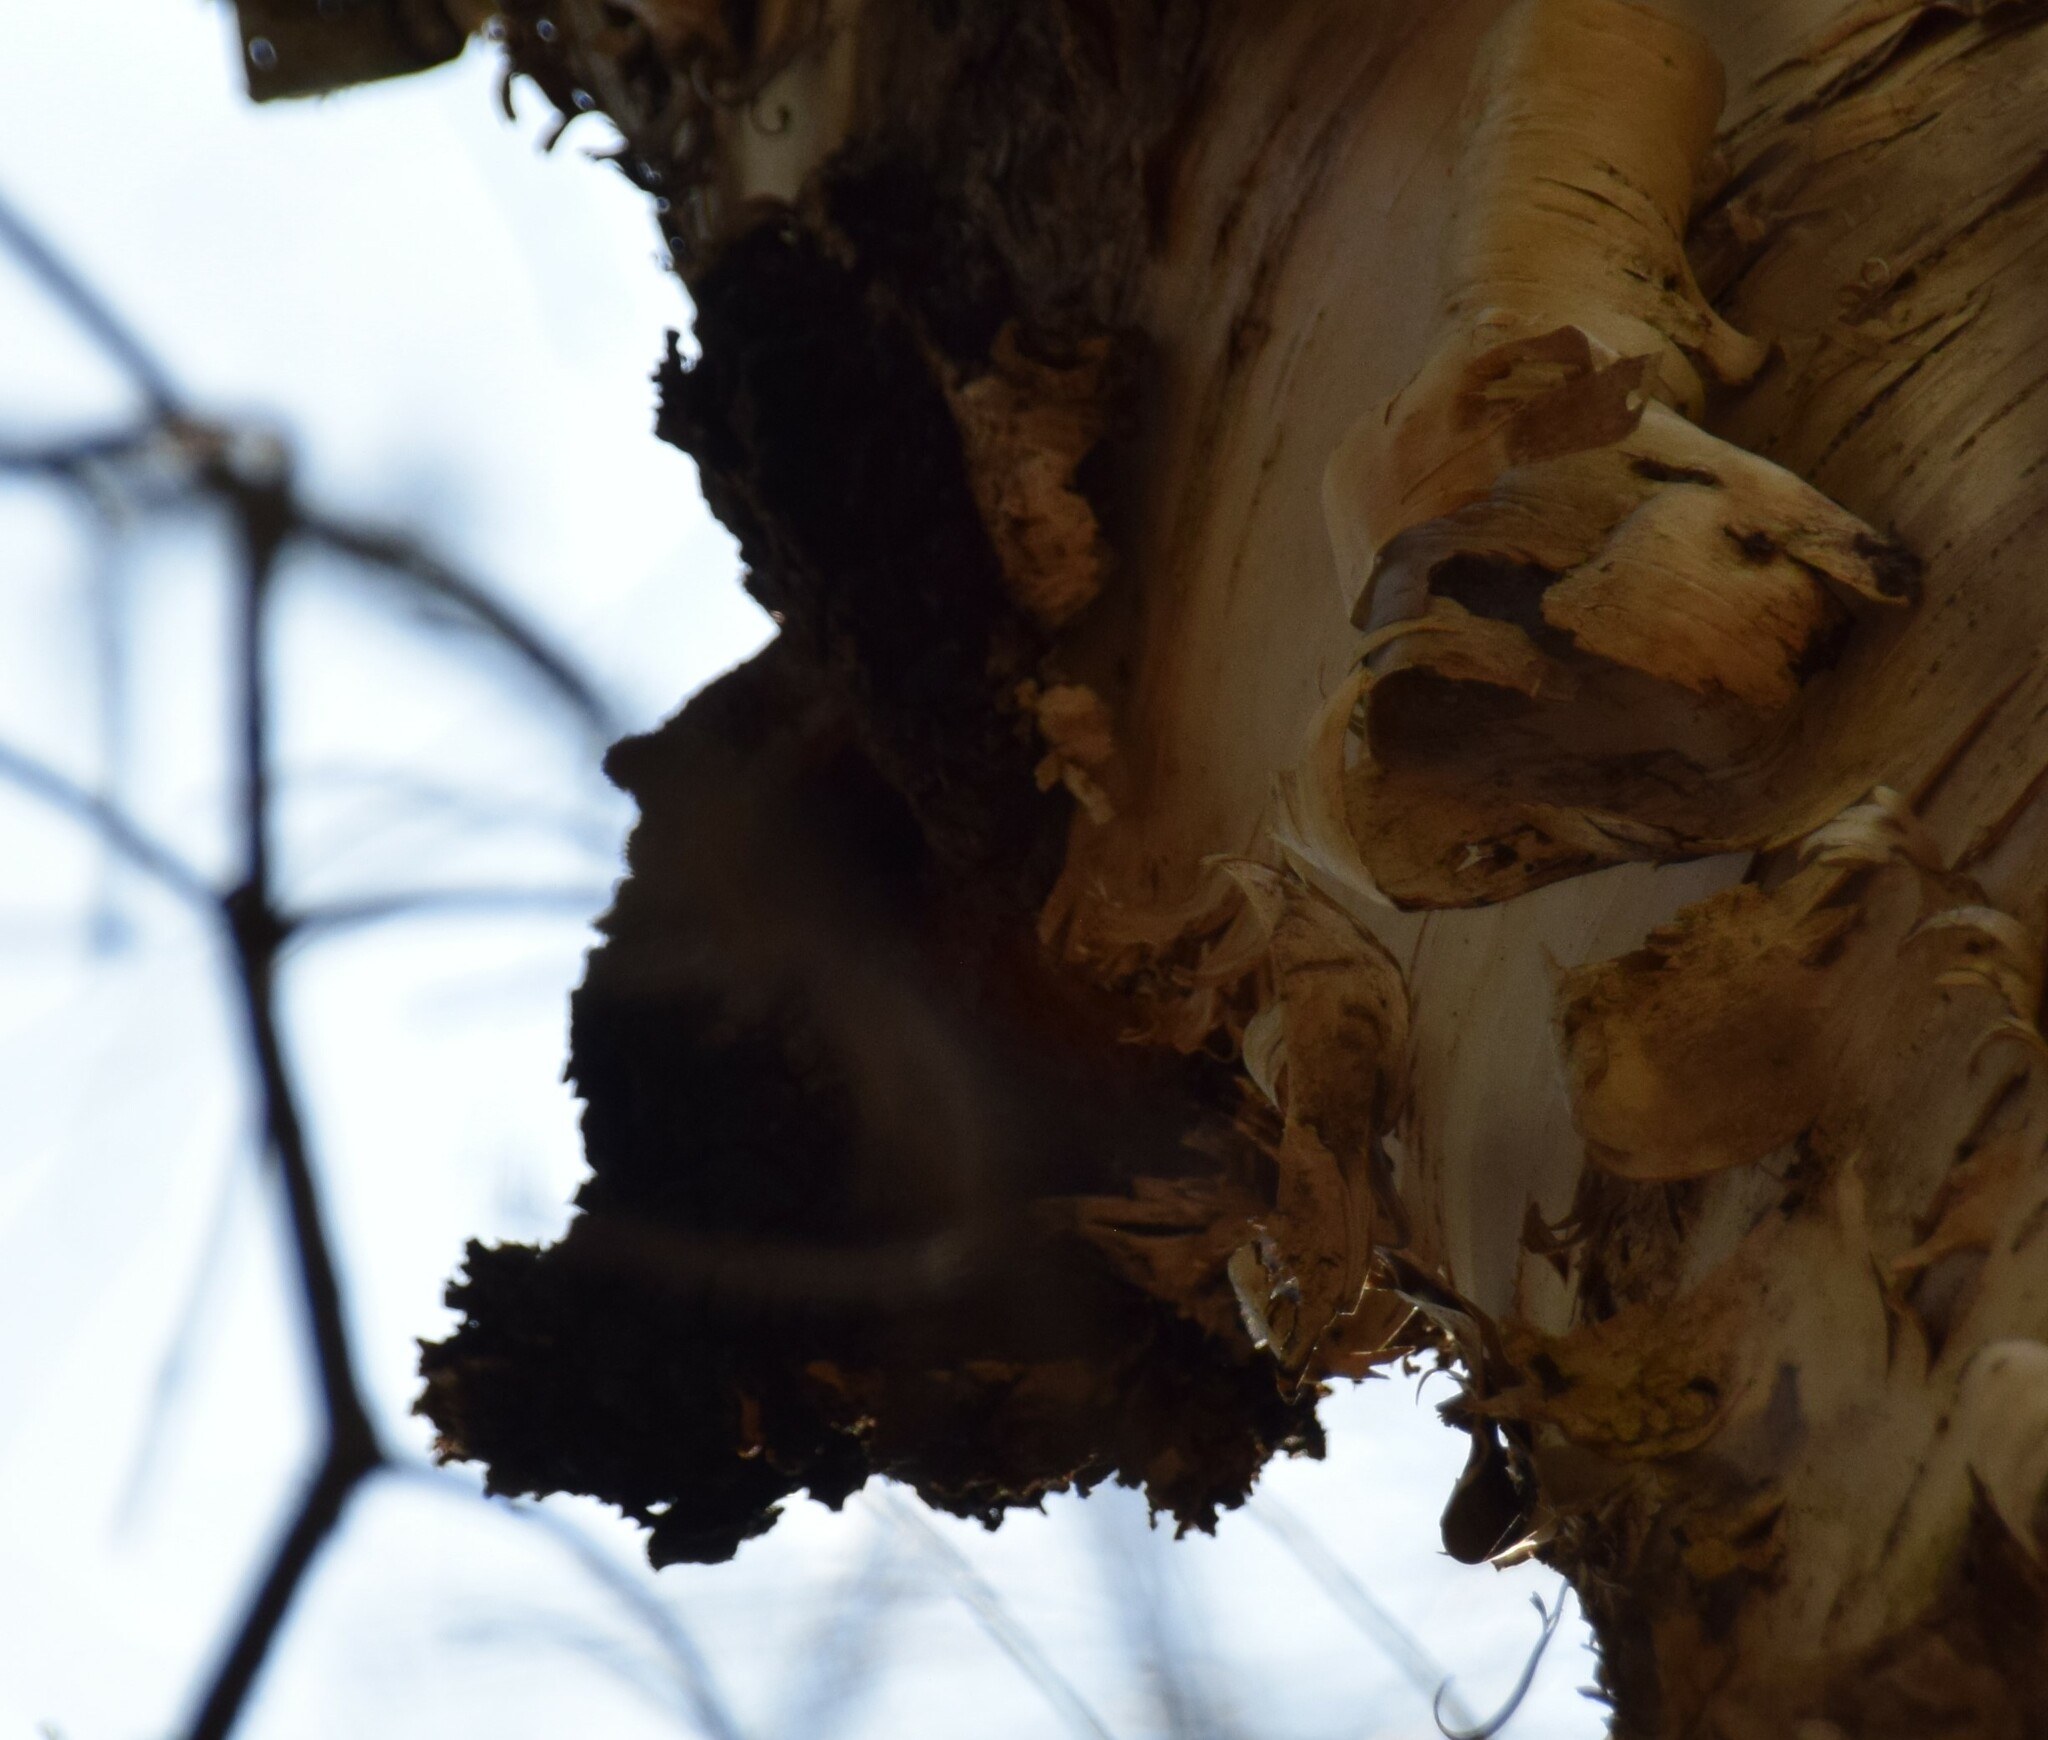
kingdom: Fungi
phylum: Basidiomycota
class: Agaricomycetes
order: Hymenochaetales
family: Hymenochaetaceae
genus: Inonotus
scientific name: Inonotus obliquus
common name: Chaga
